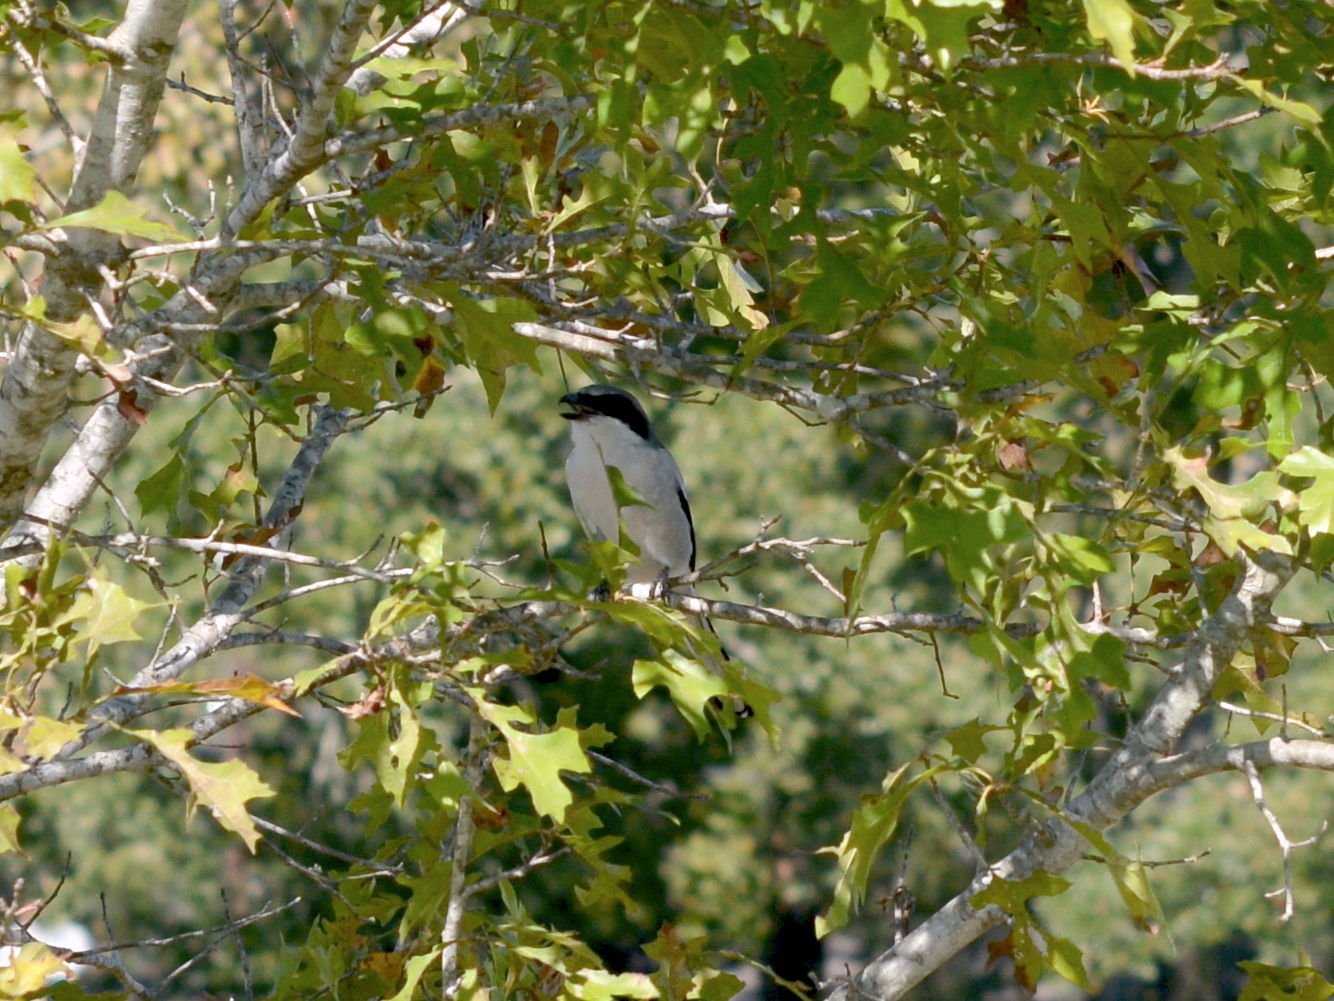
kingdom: Animalia
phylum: Chordata
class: Aves
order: Passeriformes
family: Laniidae
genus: Lanius
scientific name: Lanius ludovicianus
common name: Loggerhead shrike
